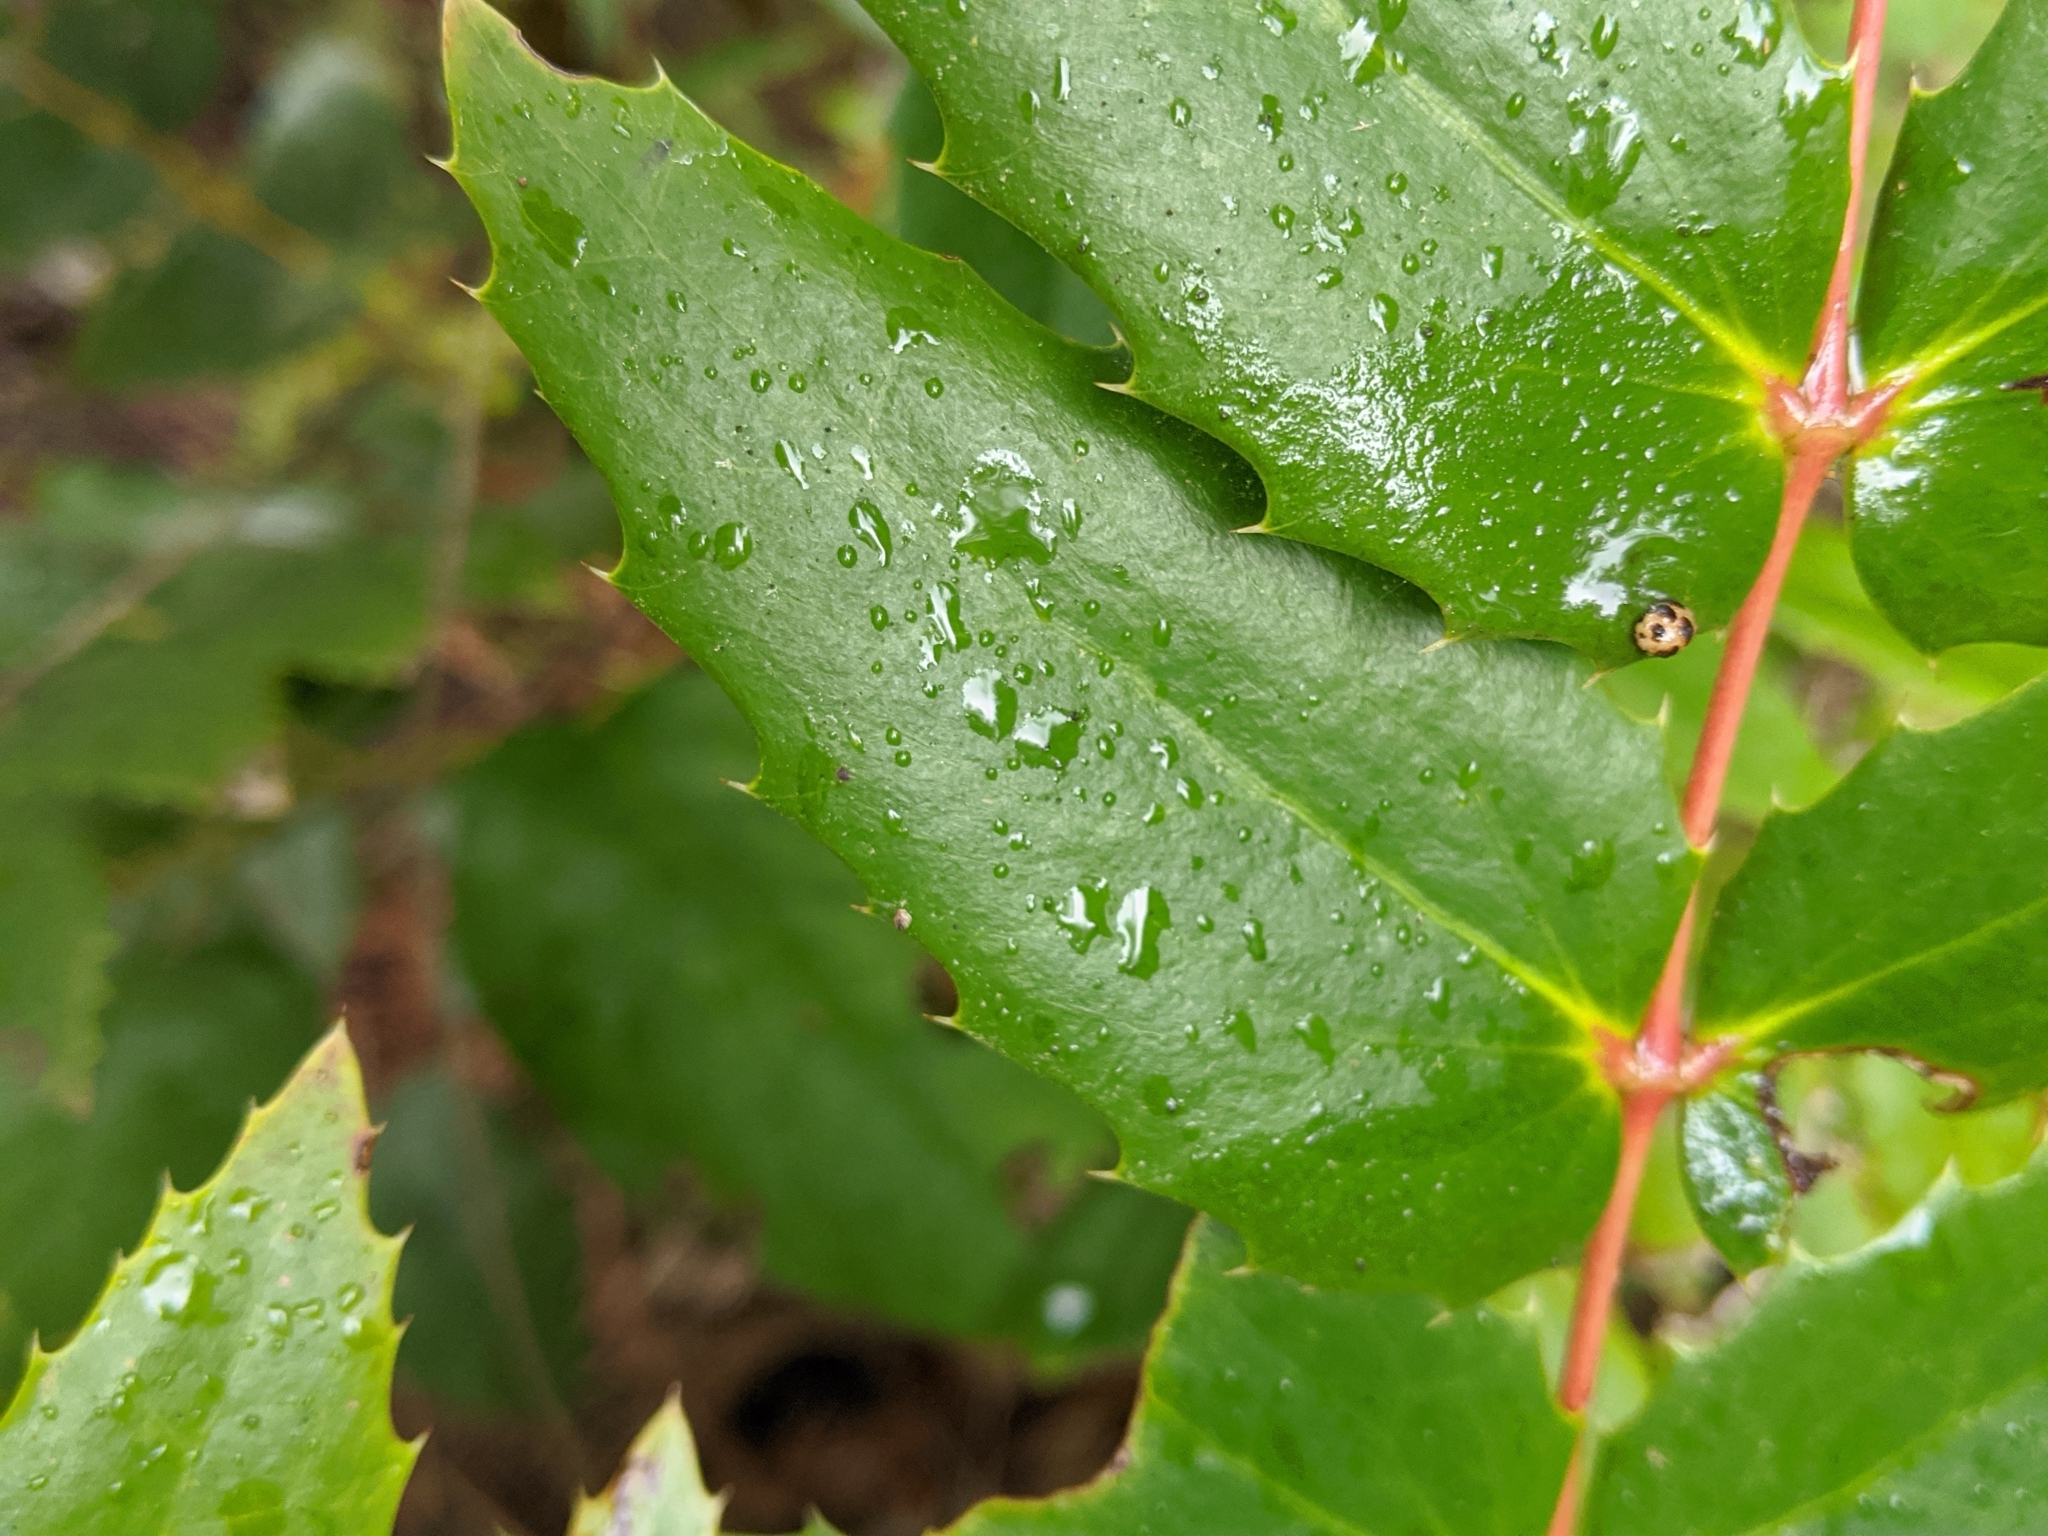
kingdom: Plantae
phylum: Tracheophyta
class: Magnoliopsida
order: Ranunculales
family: Berberidaceae
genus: Mahonia
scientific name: Mahonia nervosa
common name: Cascade oregon-grape
